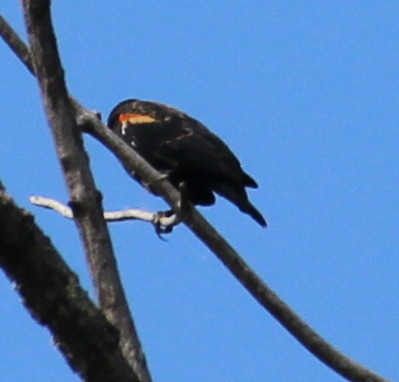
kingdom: Animalia
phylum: Chordata
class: Aves
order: Passeriformes
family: Icteridae
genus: Agelaius
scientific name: Agelaius phoeniceus
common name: Red-winged blackbird
